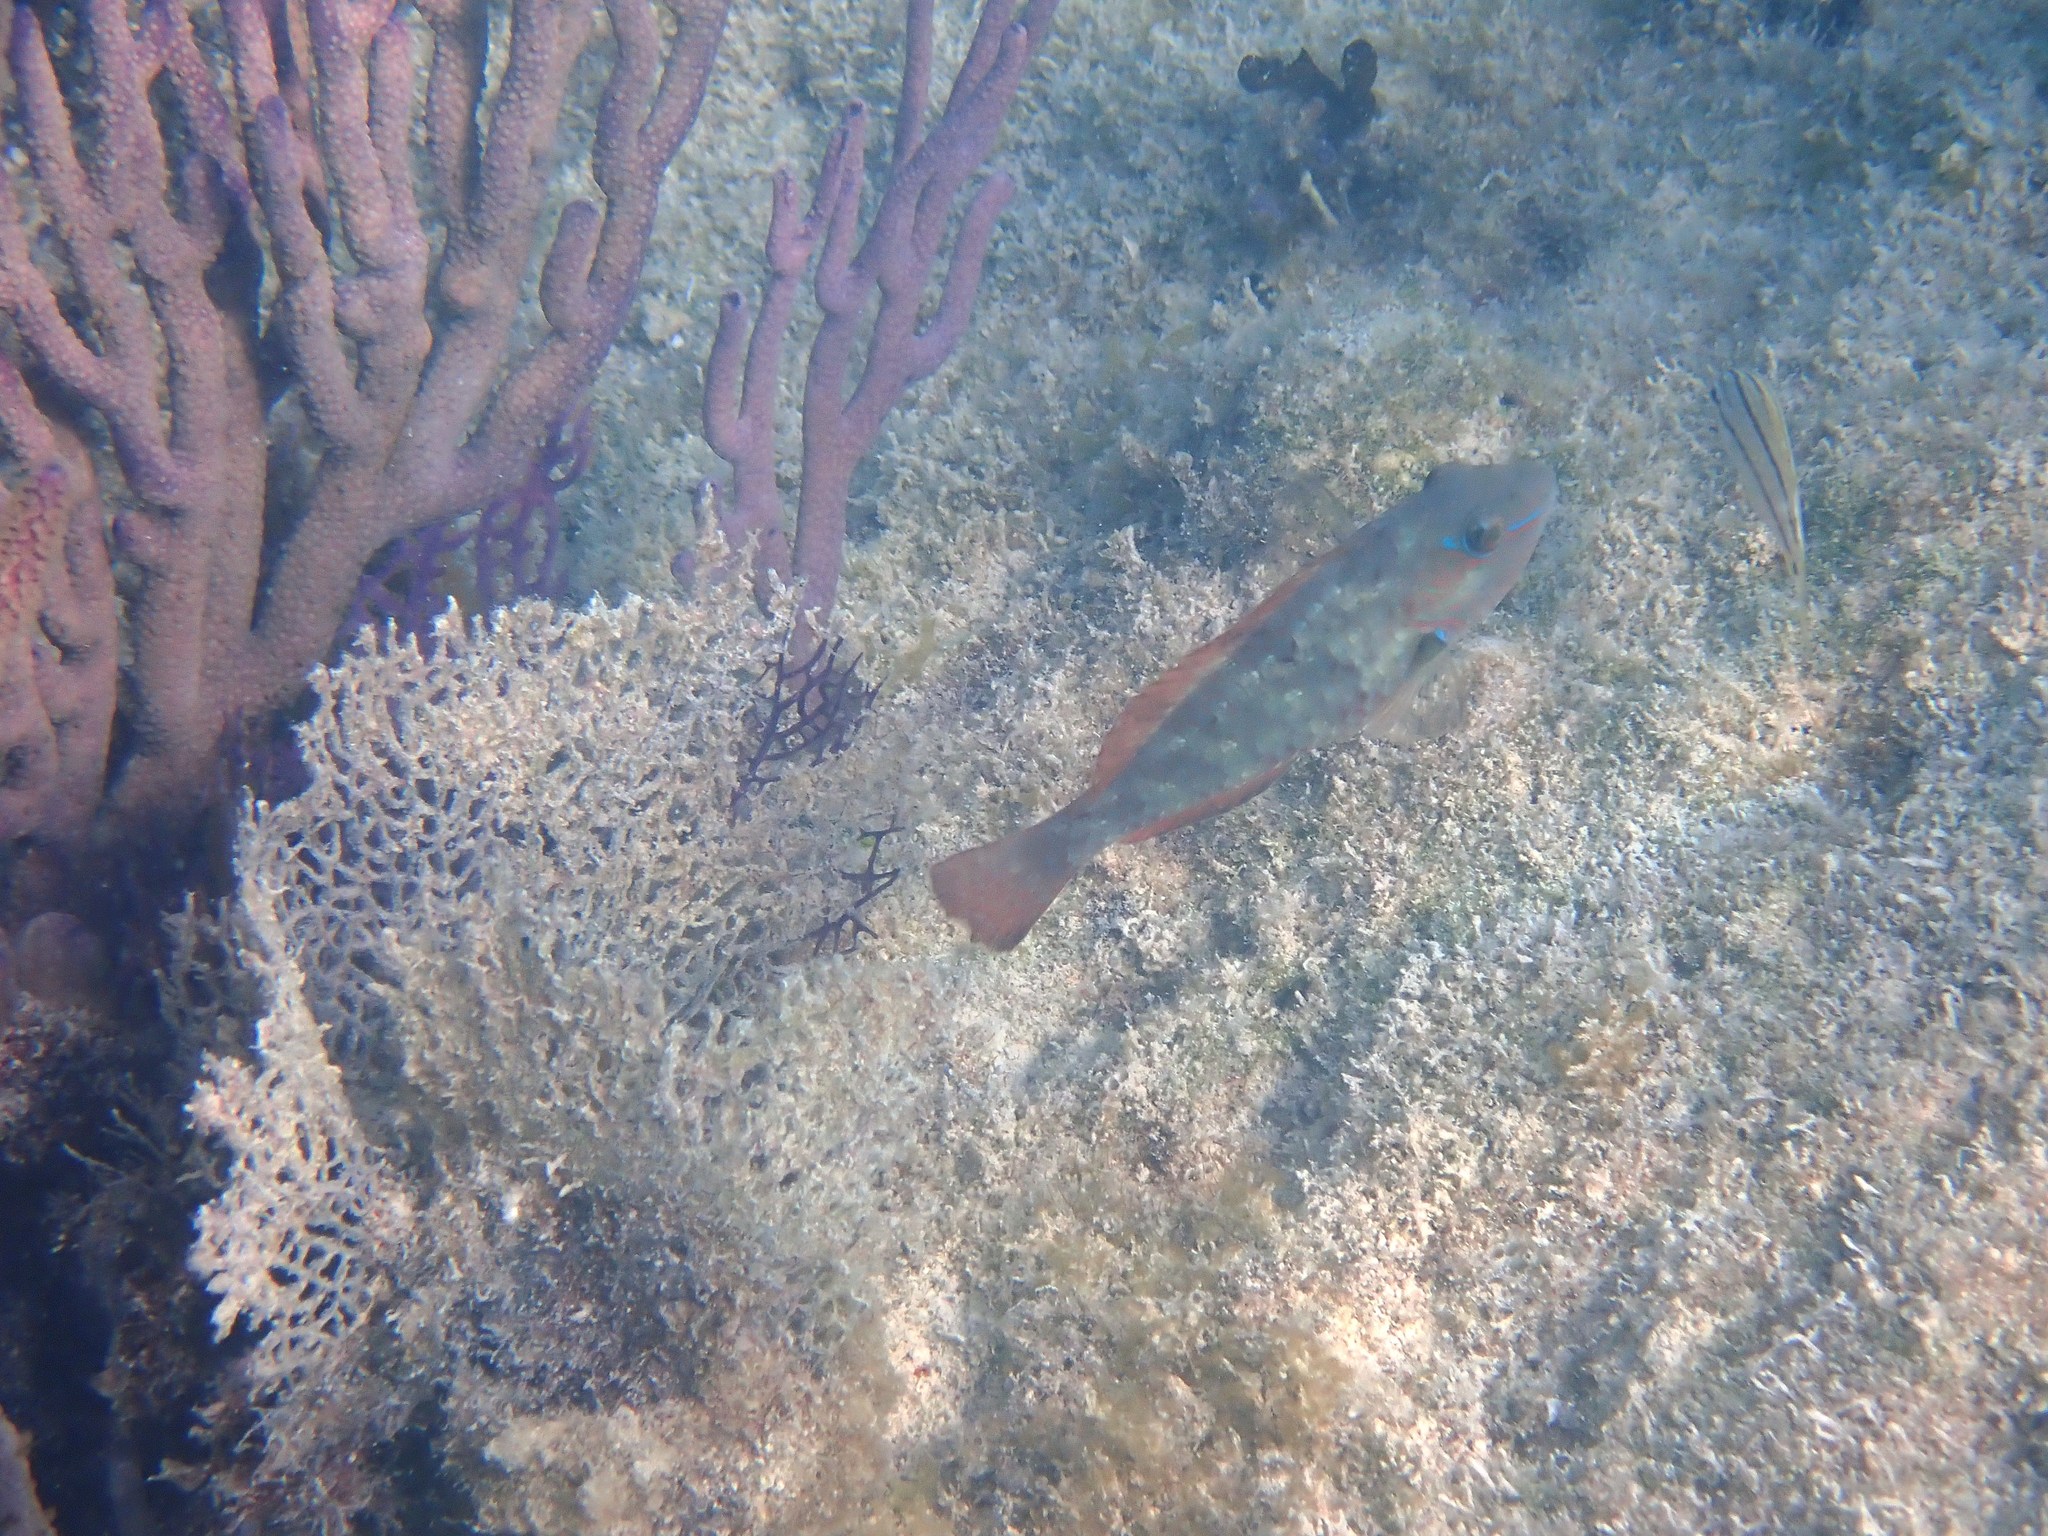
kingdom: Animalia
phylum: Chordata
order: Perciformes
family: Scaridae
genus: Sparisoma
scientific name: Sparisoma radians
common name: Bucktooth parrotfish
